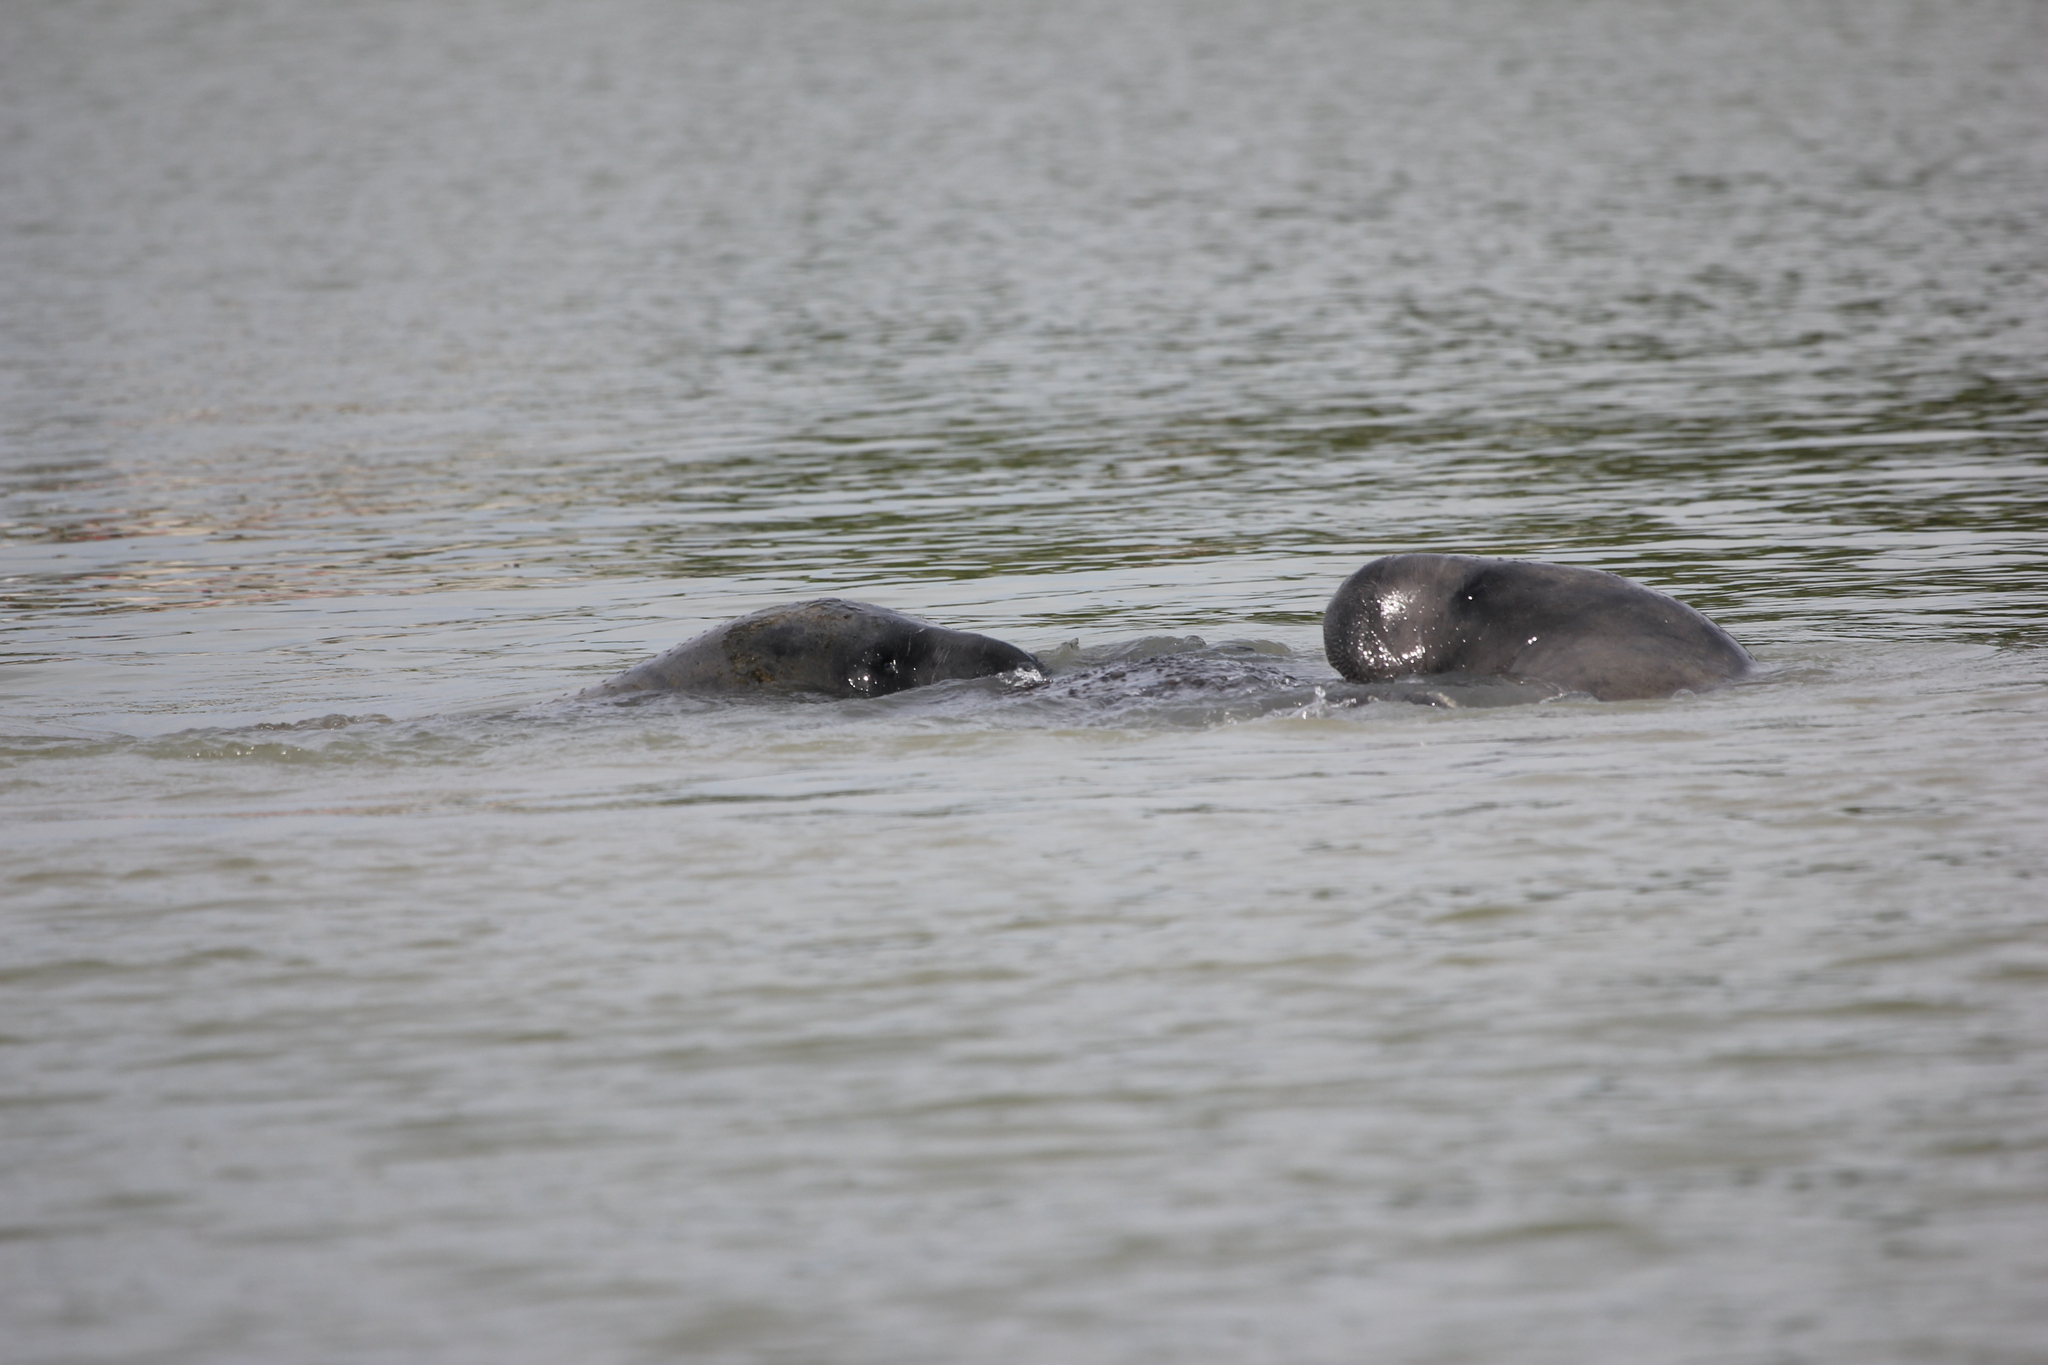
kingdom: Animalia
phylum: Chordata
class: Mammalia
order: Sirenia
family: Trichechidae
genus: Trichechus
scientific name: Trichechus manatus
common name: West indian manatee
